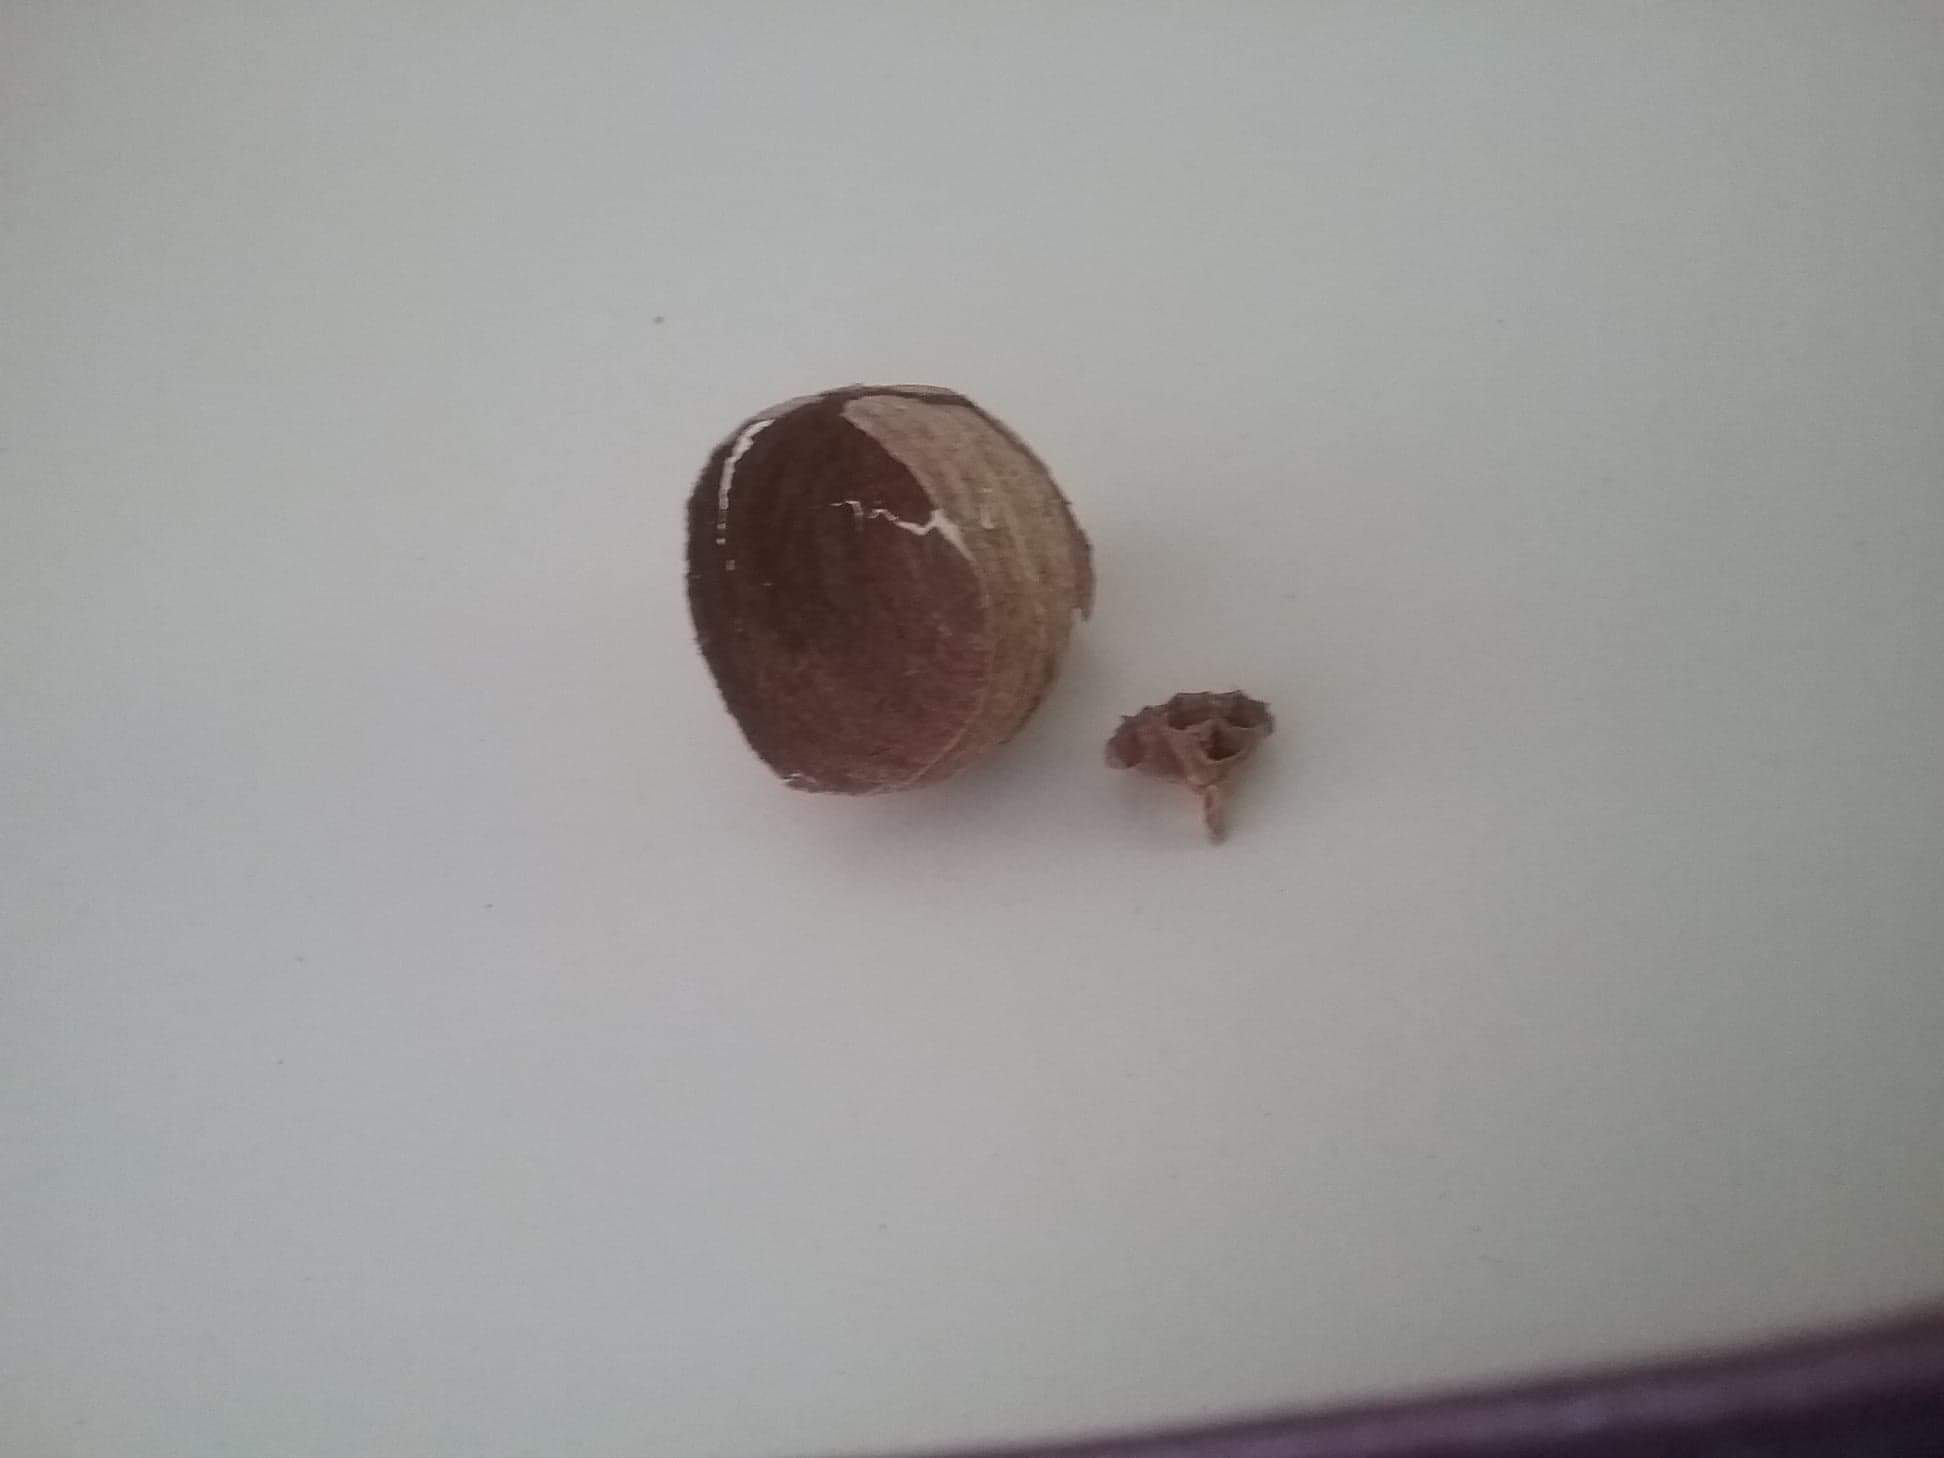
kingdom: Animalia
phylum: Arthropoda
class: Insecta
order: Hymenoptera
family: Vespidae
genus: Vespa
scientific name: Vespa velutina
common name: Asian hornet
